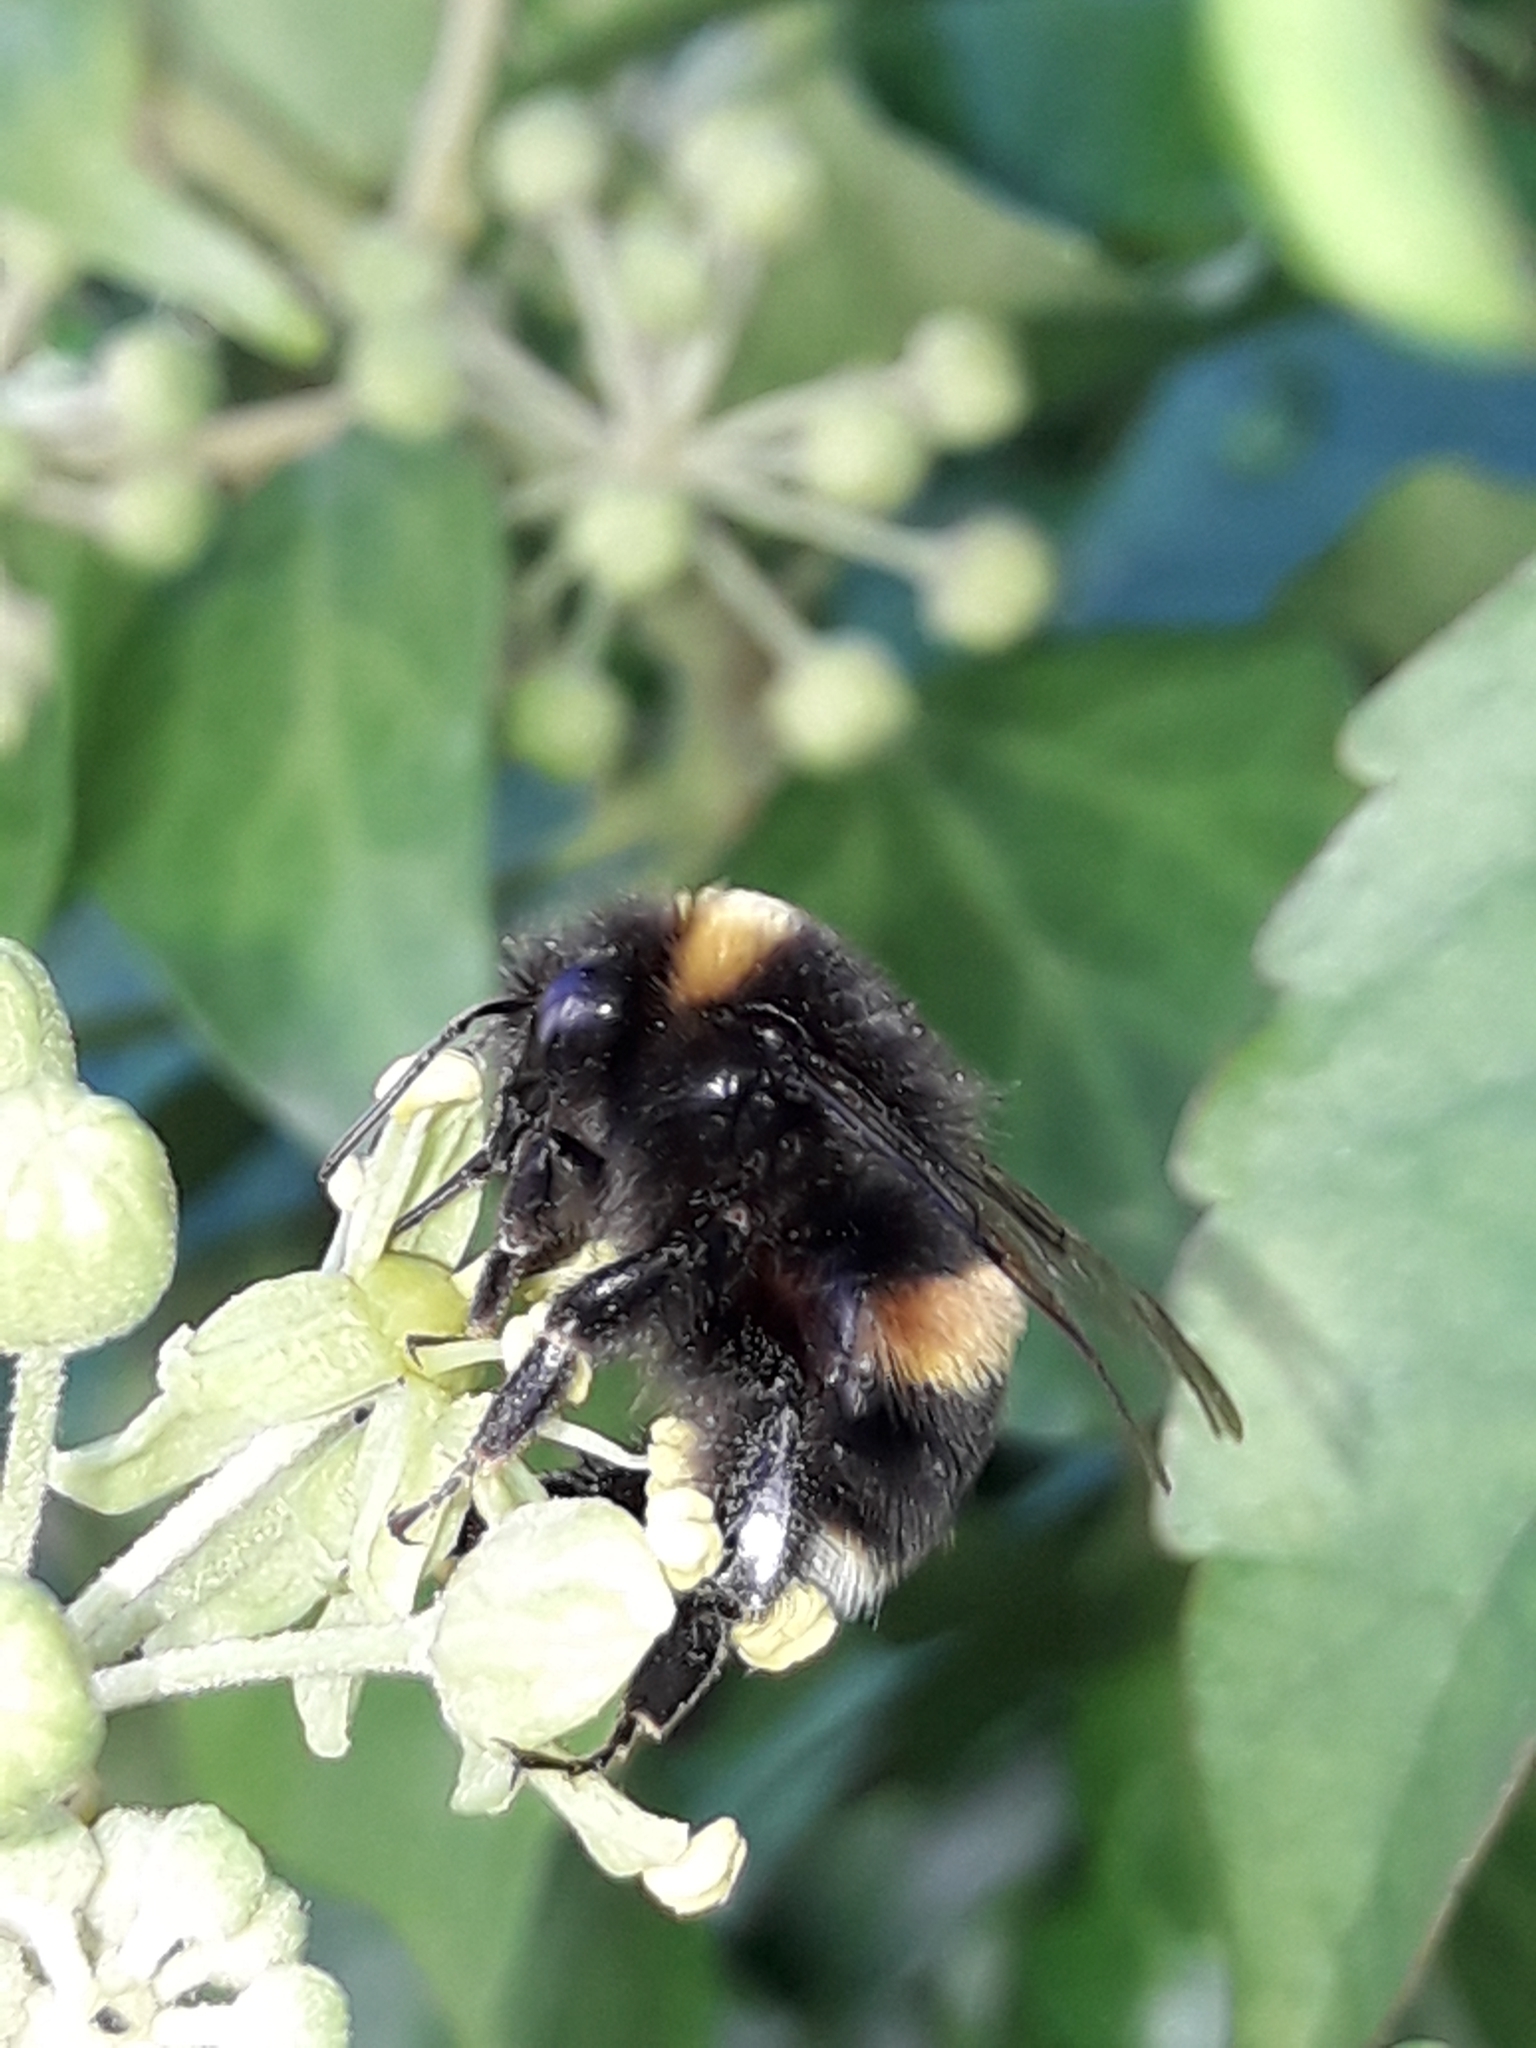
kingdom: Animalia
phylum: Arthropoda
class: Insecta
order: Hymenoptera
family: Apidae
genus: Bombus
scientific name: Bombus terrestris
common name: Buff-tailed bumblebee
